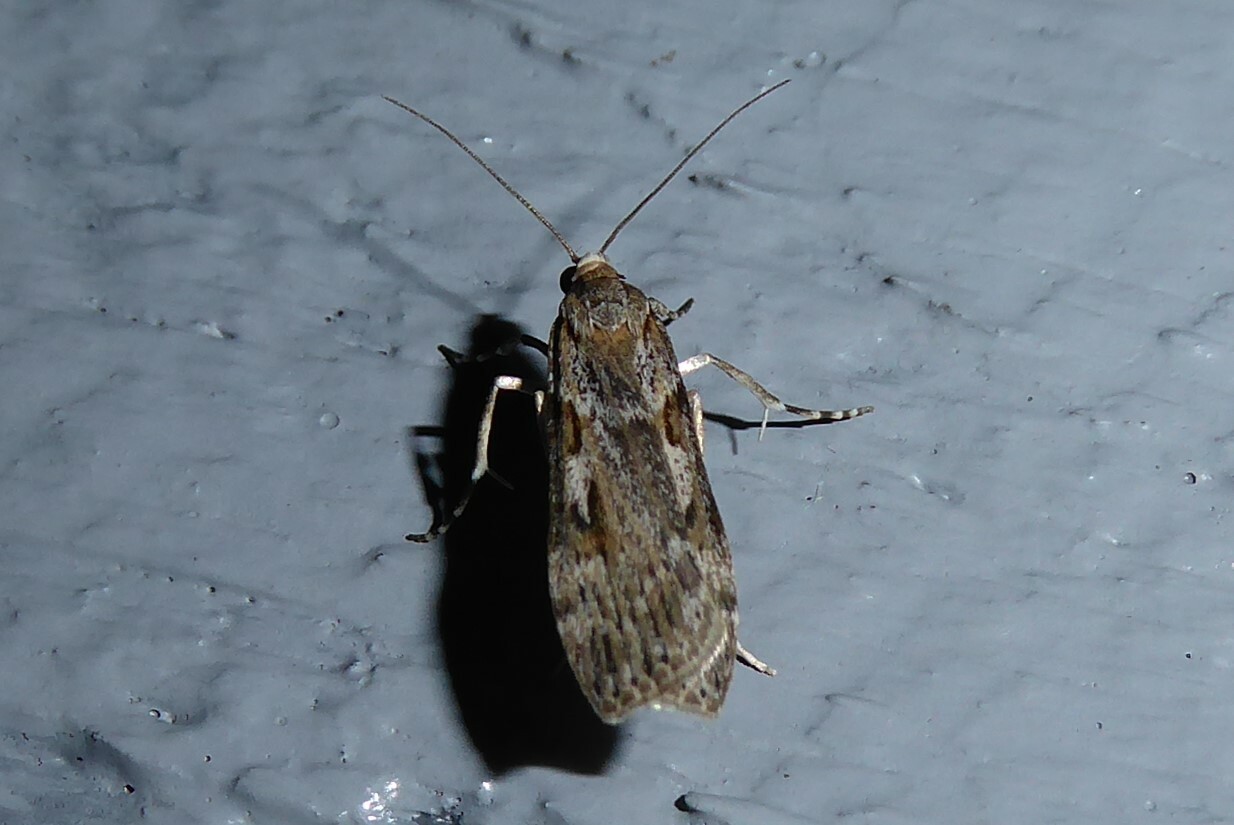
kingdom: Animalia
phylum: Arthropoda
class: Insecta
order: Lepidoptera
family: Crambidae
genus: Scoparia
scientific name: Scoparia halopis
